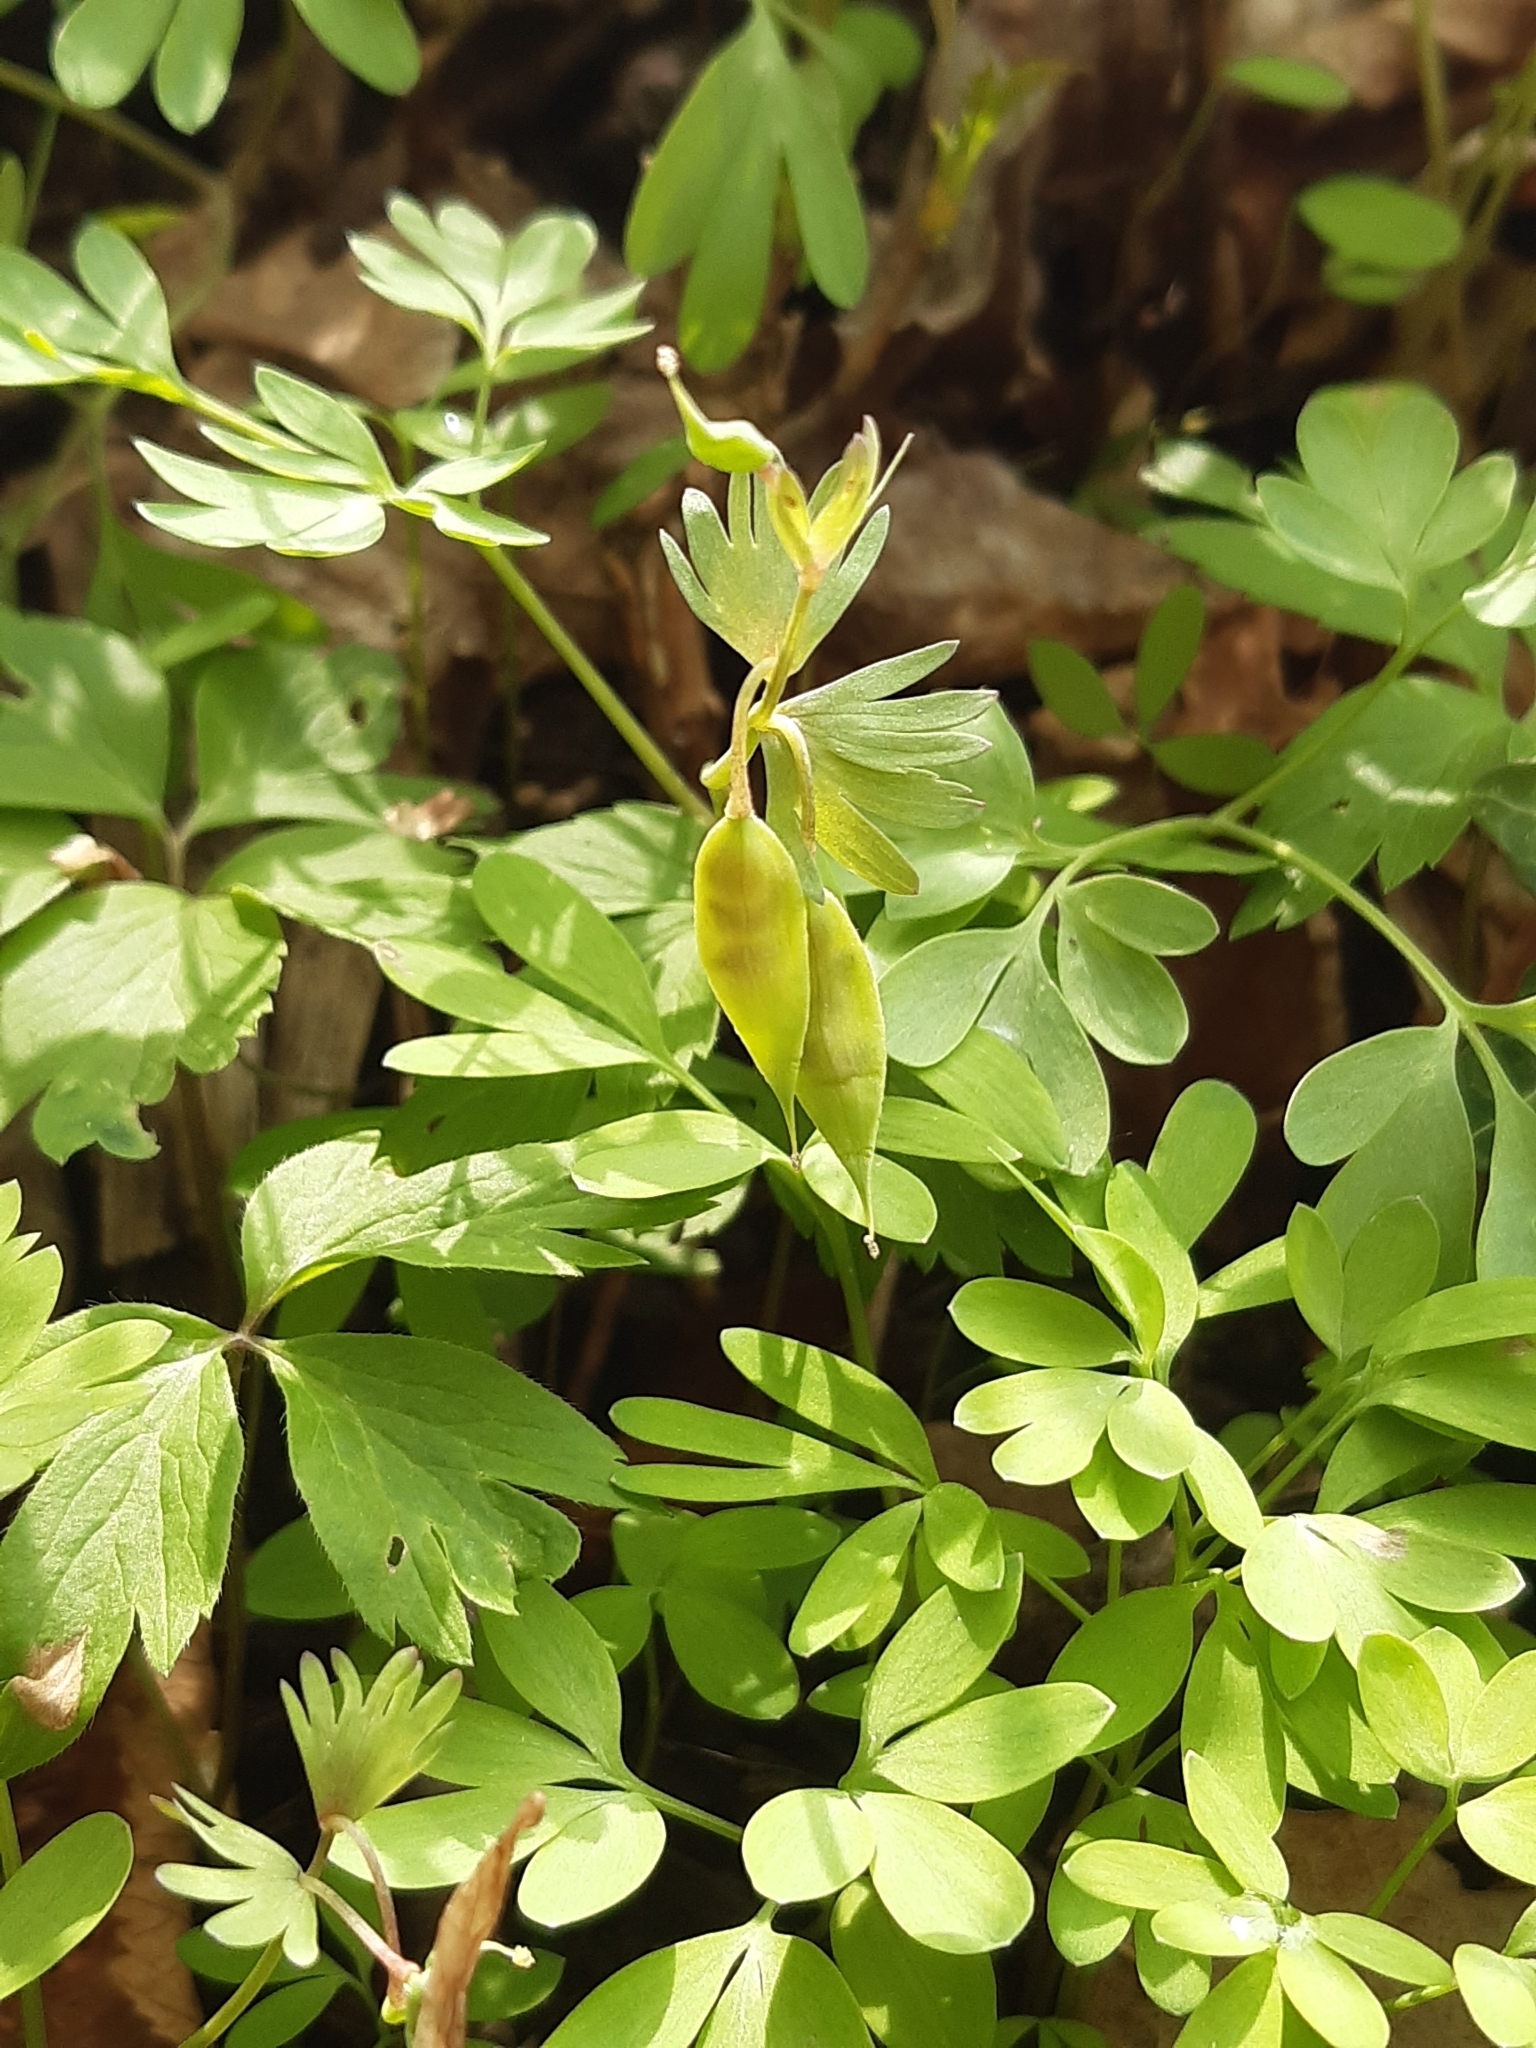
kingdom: Plantae
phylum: Tracheophyta
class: Magnoliopsida
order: Ranunculales
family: Papaveraceae
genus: Corydalis
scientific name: Corydalis solida
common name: Bird-in-a-bush
